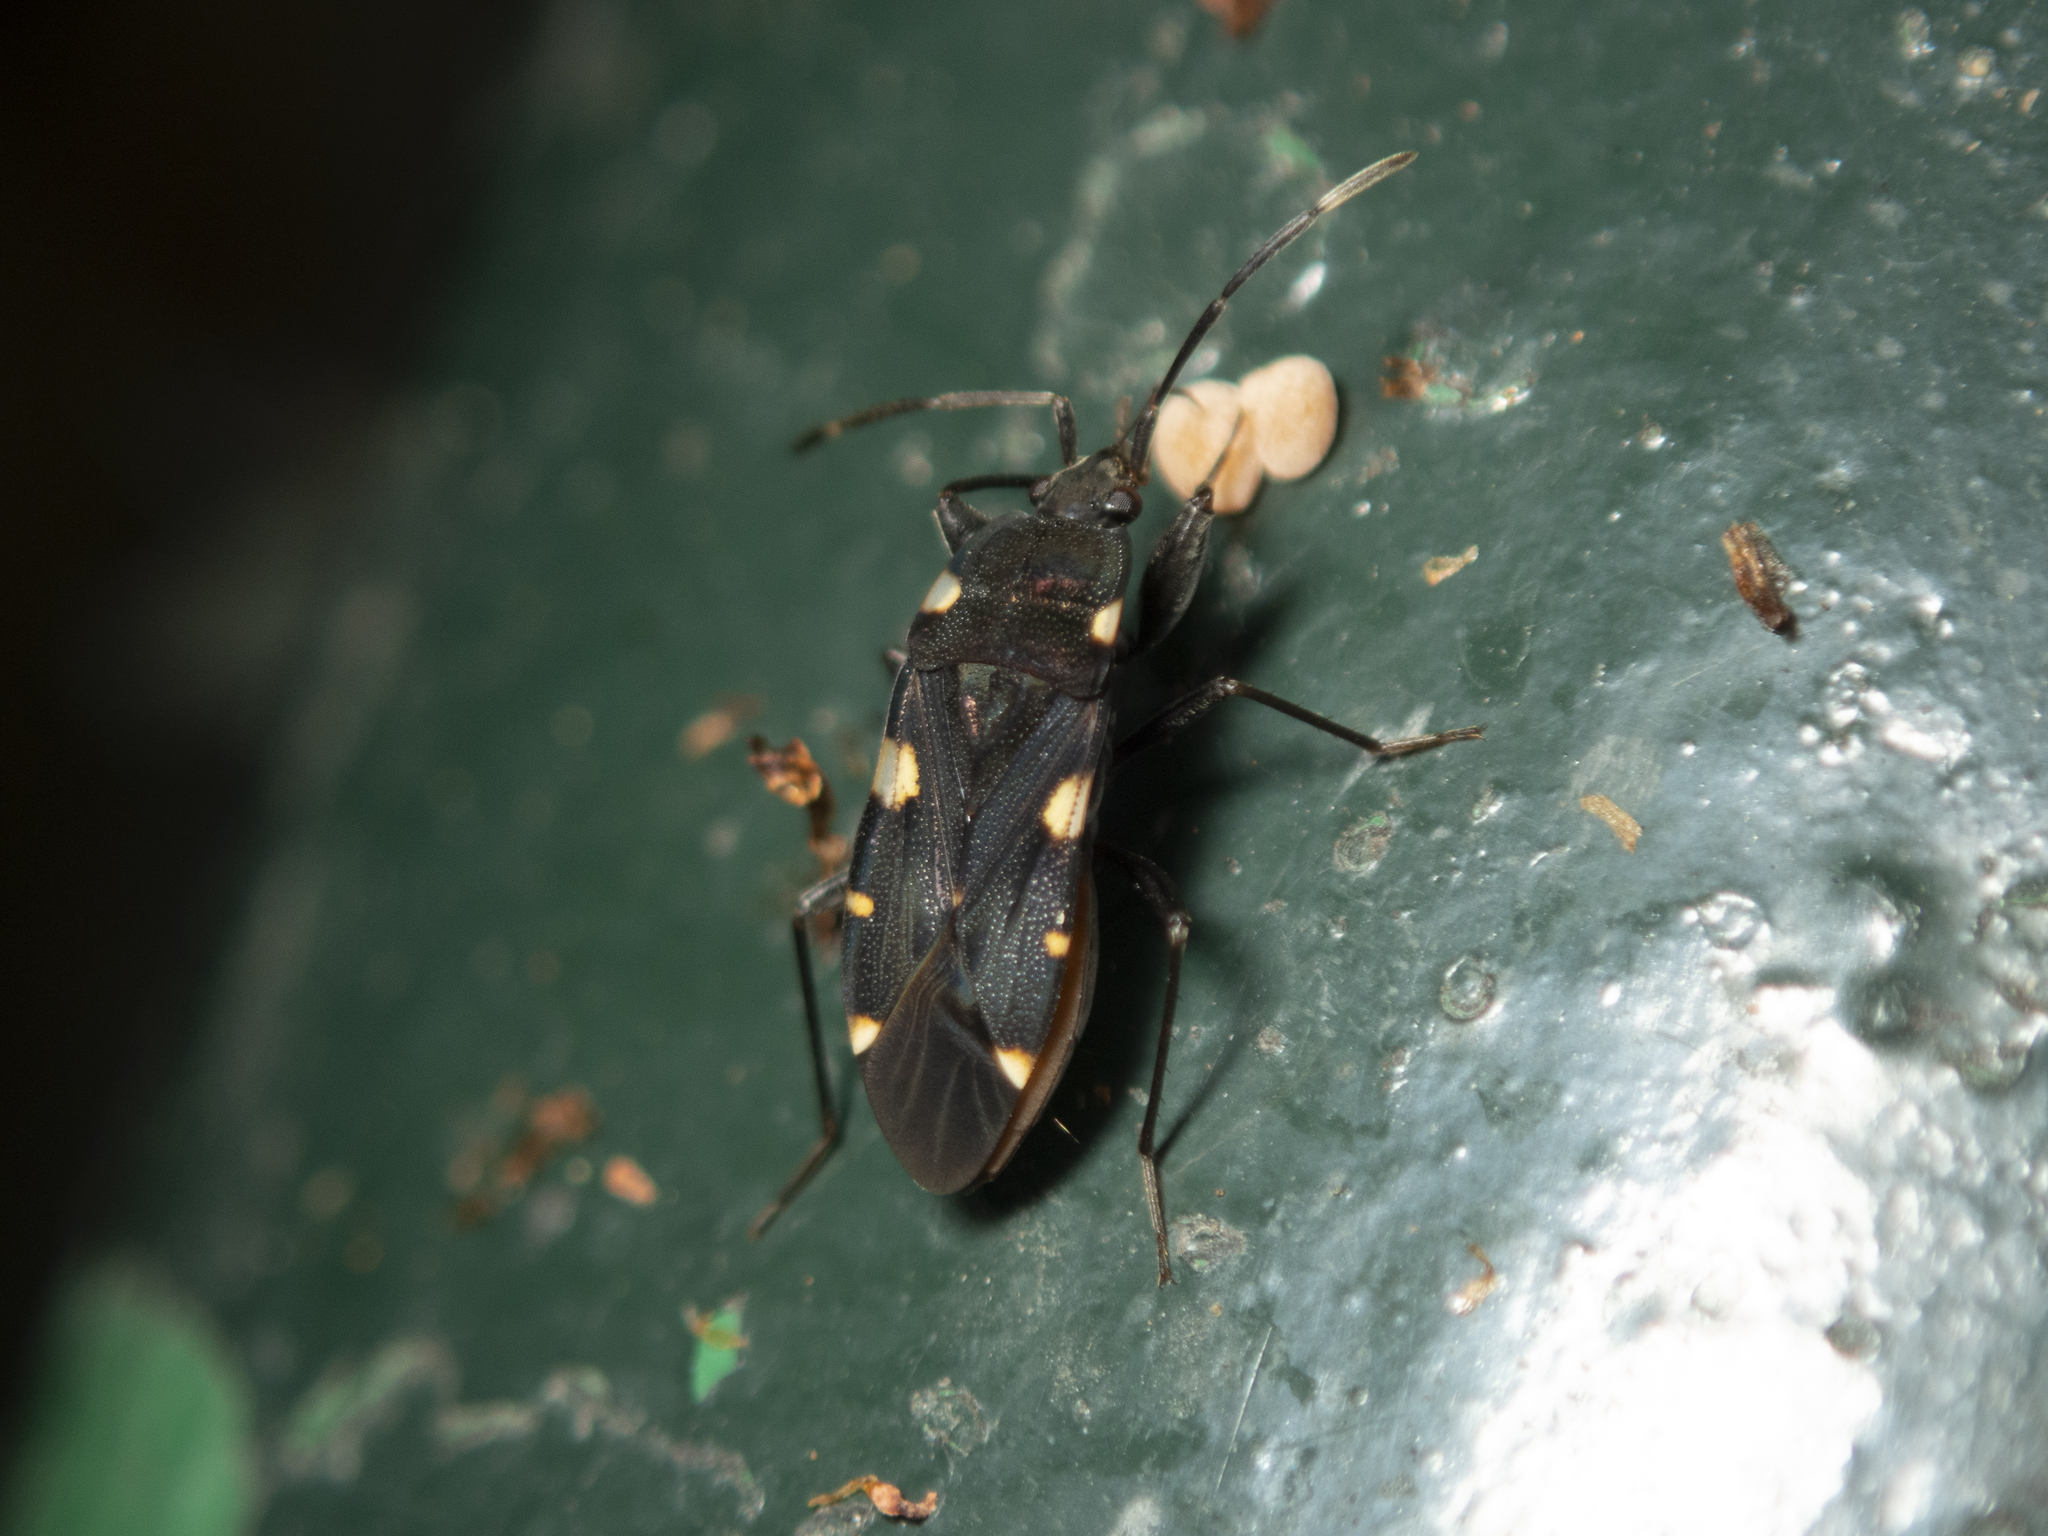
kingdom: Animalia
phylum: Arthropoda
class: Insecta
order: Hemiptera
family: Rhyparochromidae
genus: Potamiaena
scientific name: Potamiaena aurifera
